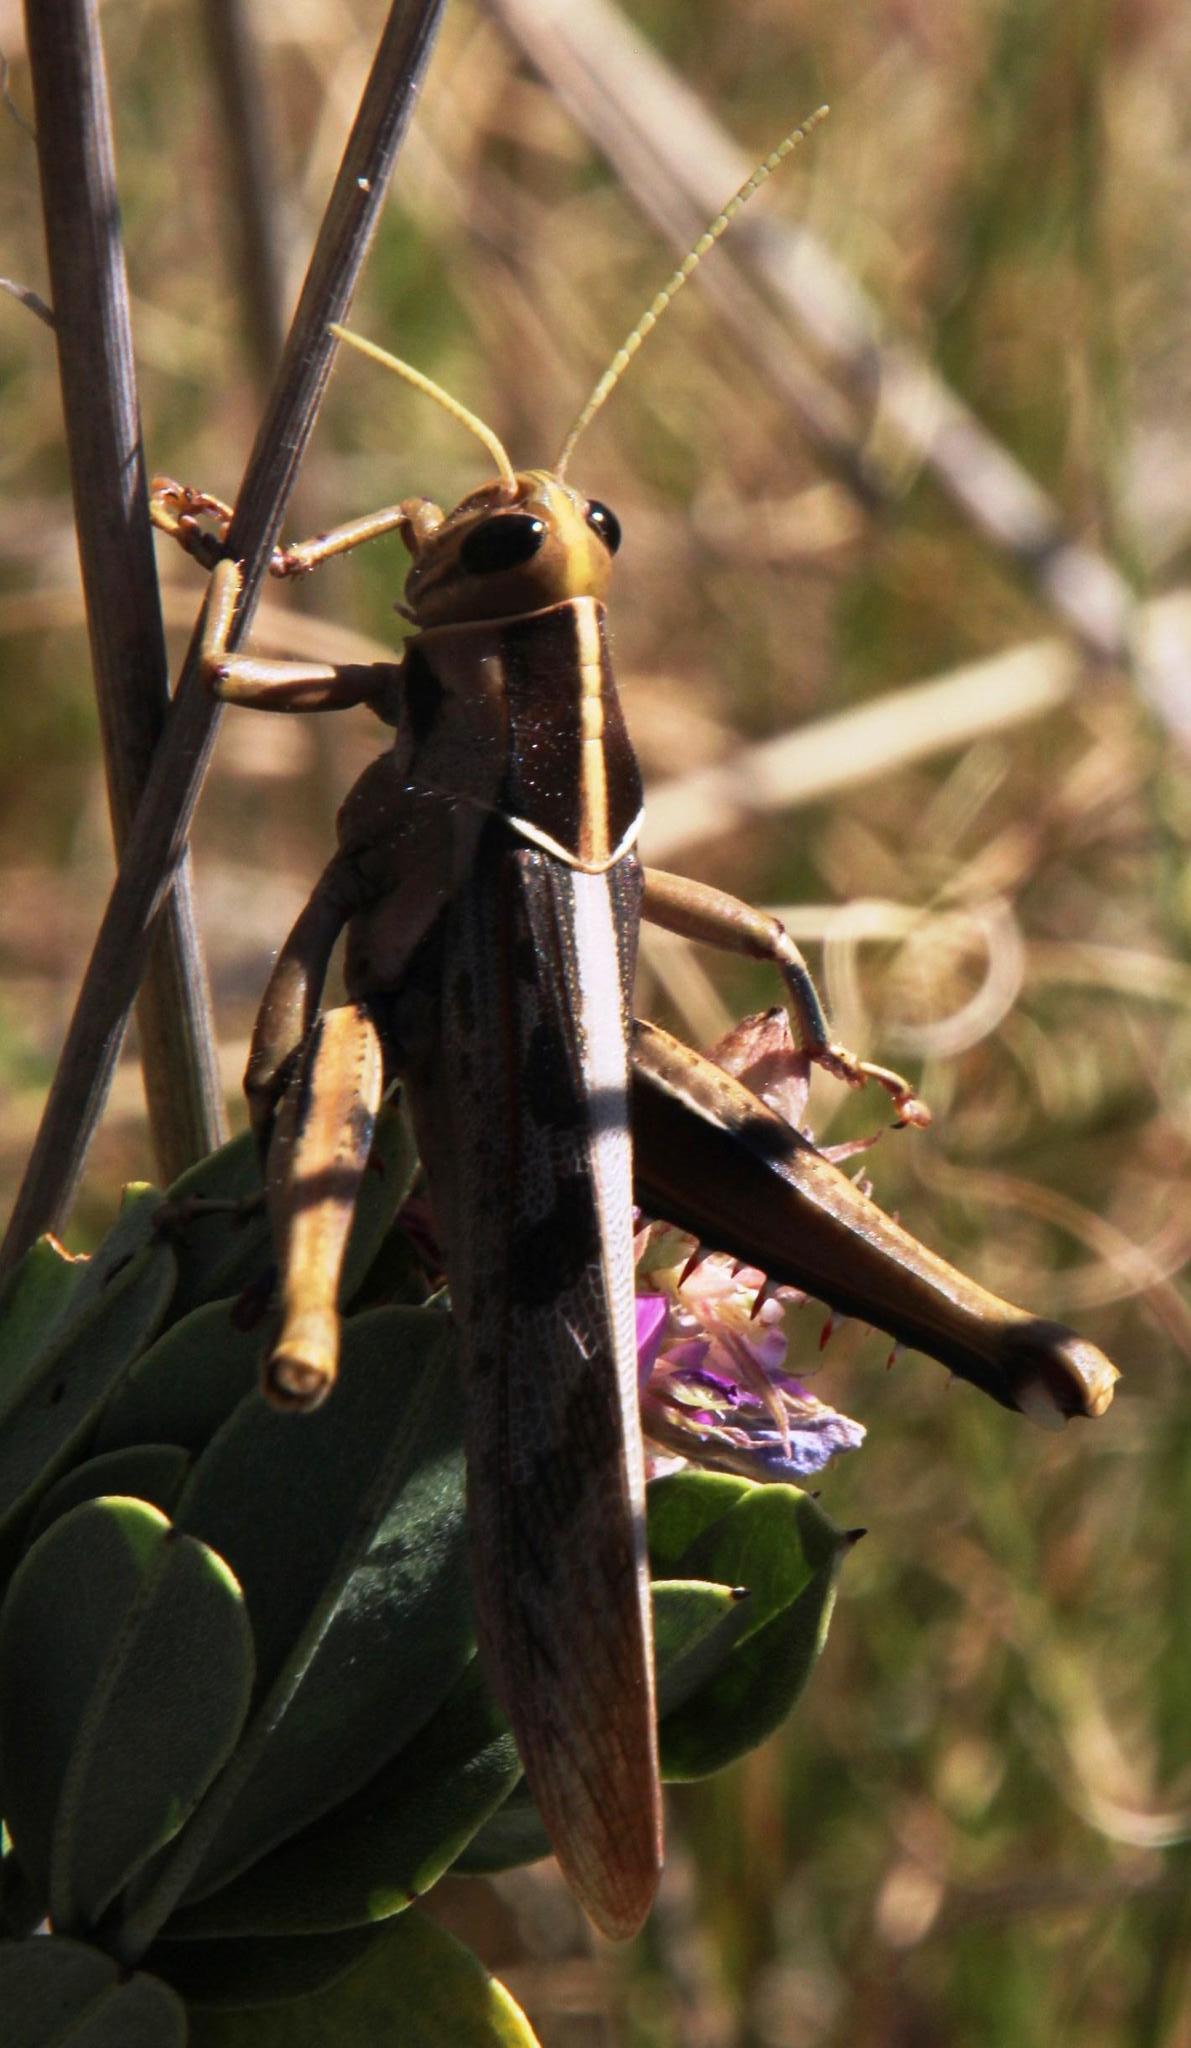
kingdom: Animalia
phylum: Arthropoda
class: Insecta
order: Orthoptera
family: Acrididae
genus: Acanthacris
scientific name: Acanthacris ruficornis
